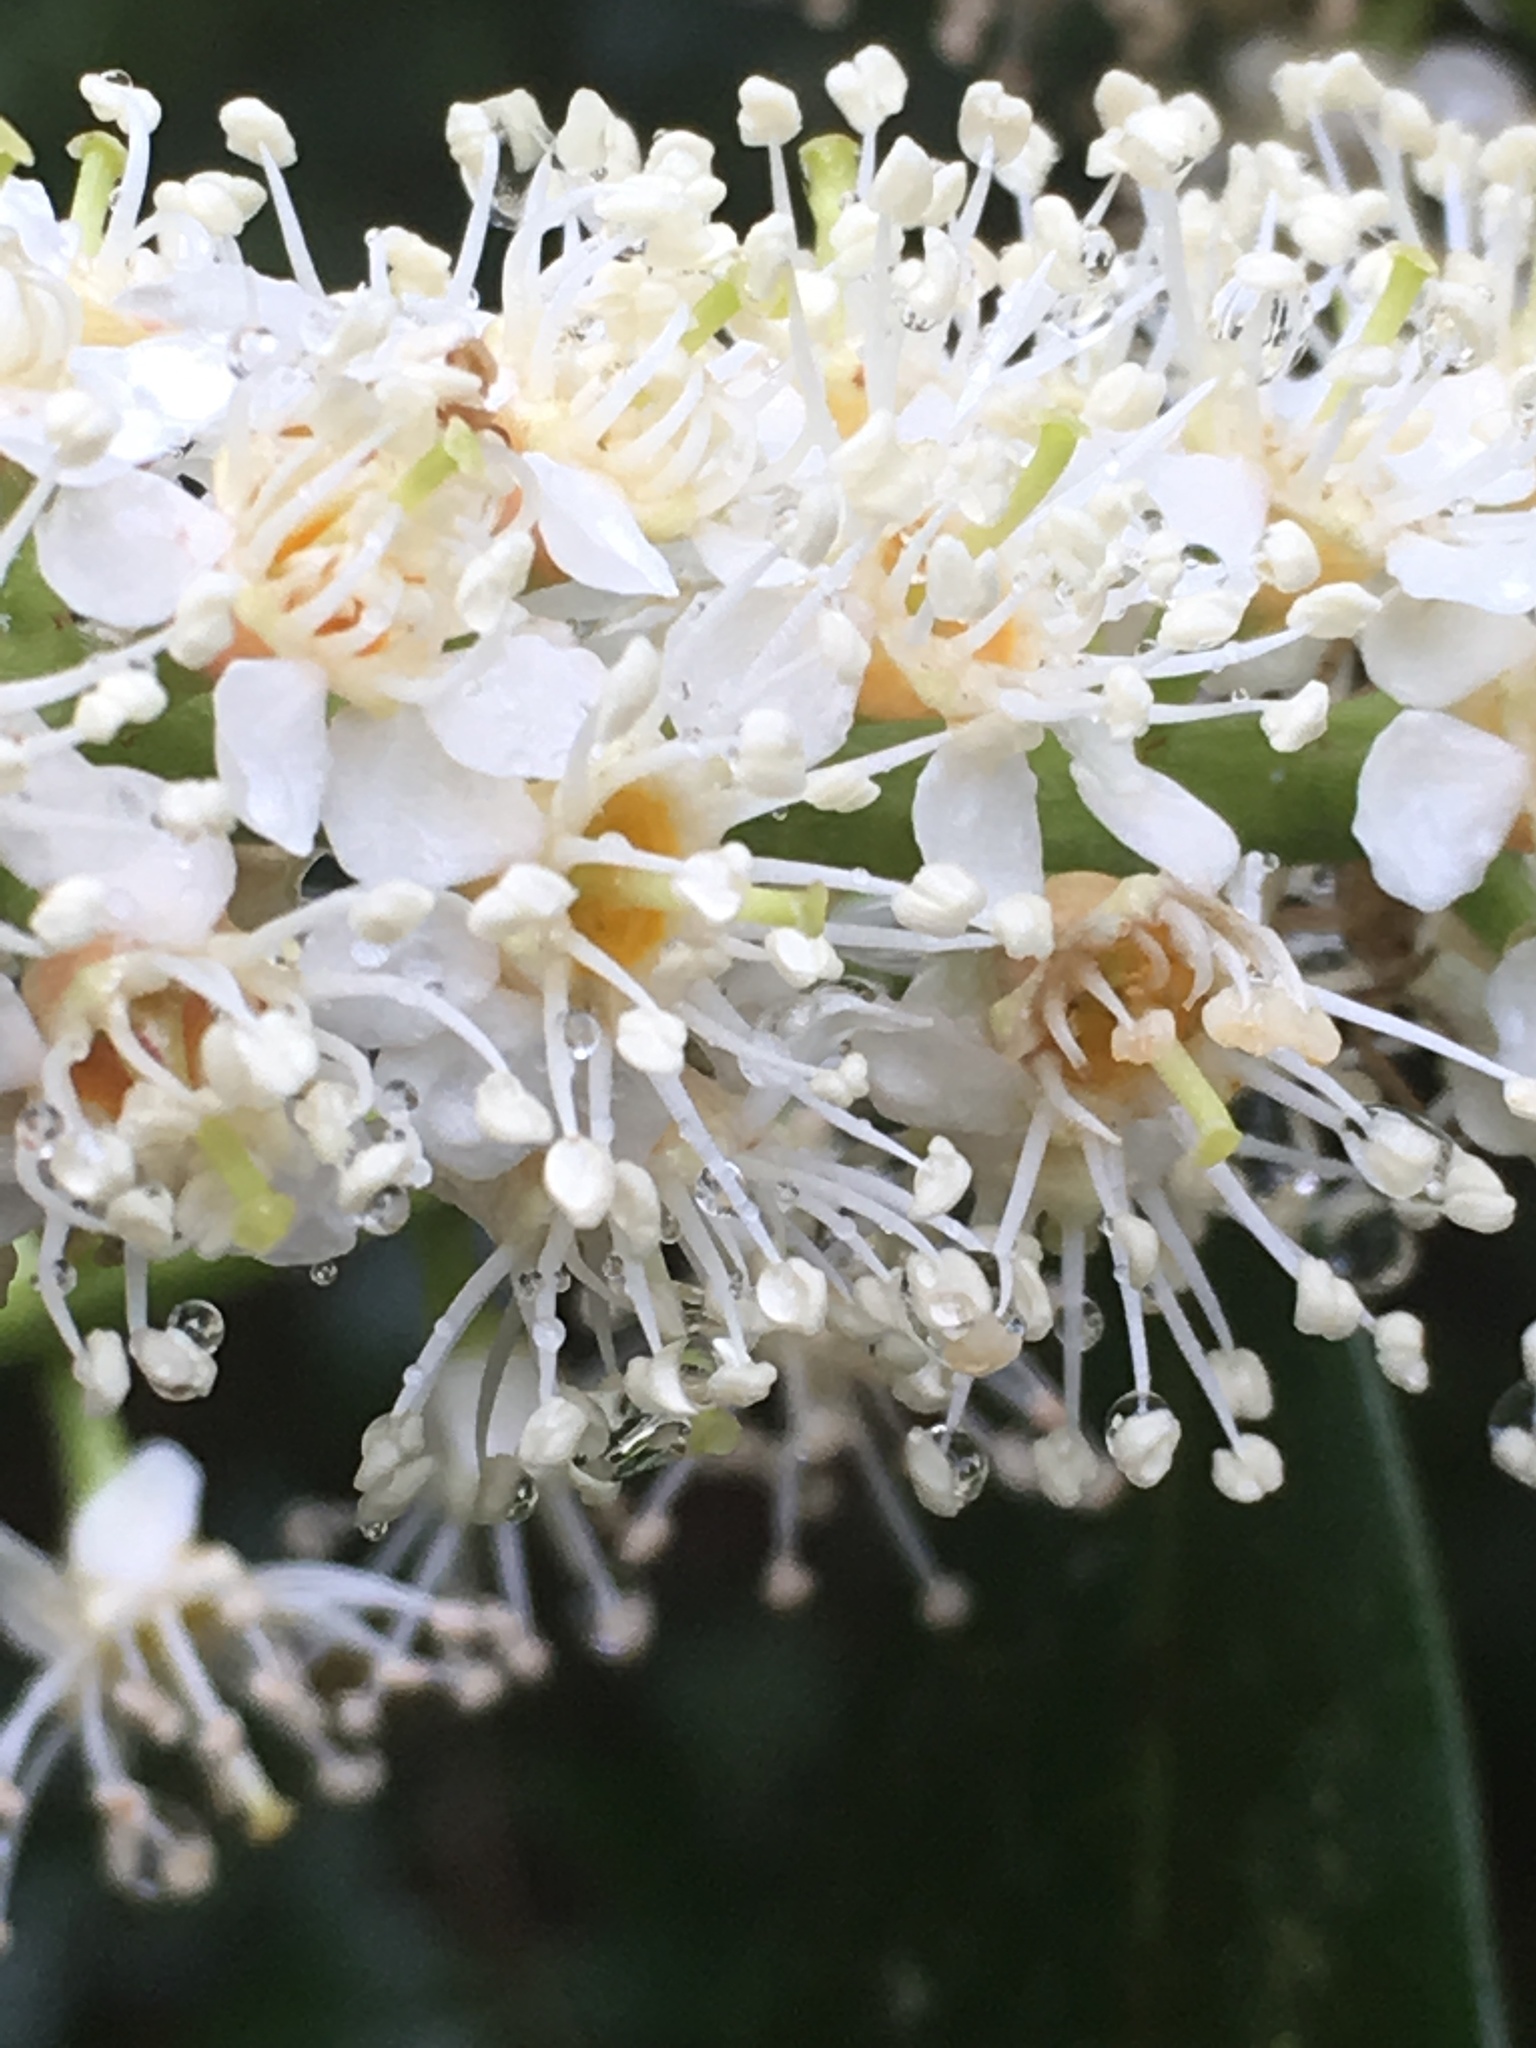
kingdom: Plantae
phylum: Tracheophyta
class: Magnoliopsida
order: Rosales
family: Rosaceae
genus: Prunus
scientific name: Prunus laurocerasus
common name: Cherry laurel
